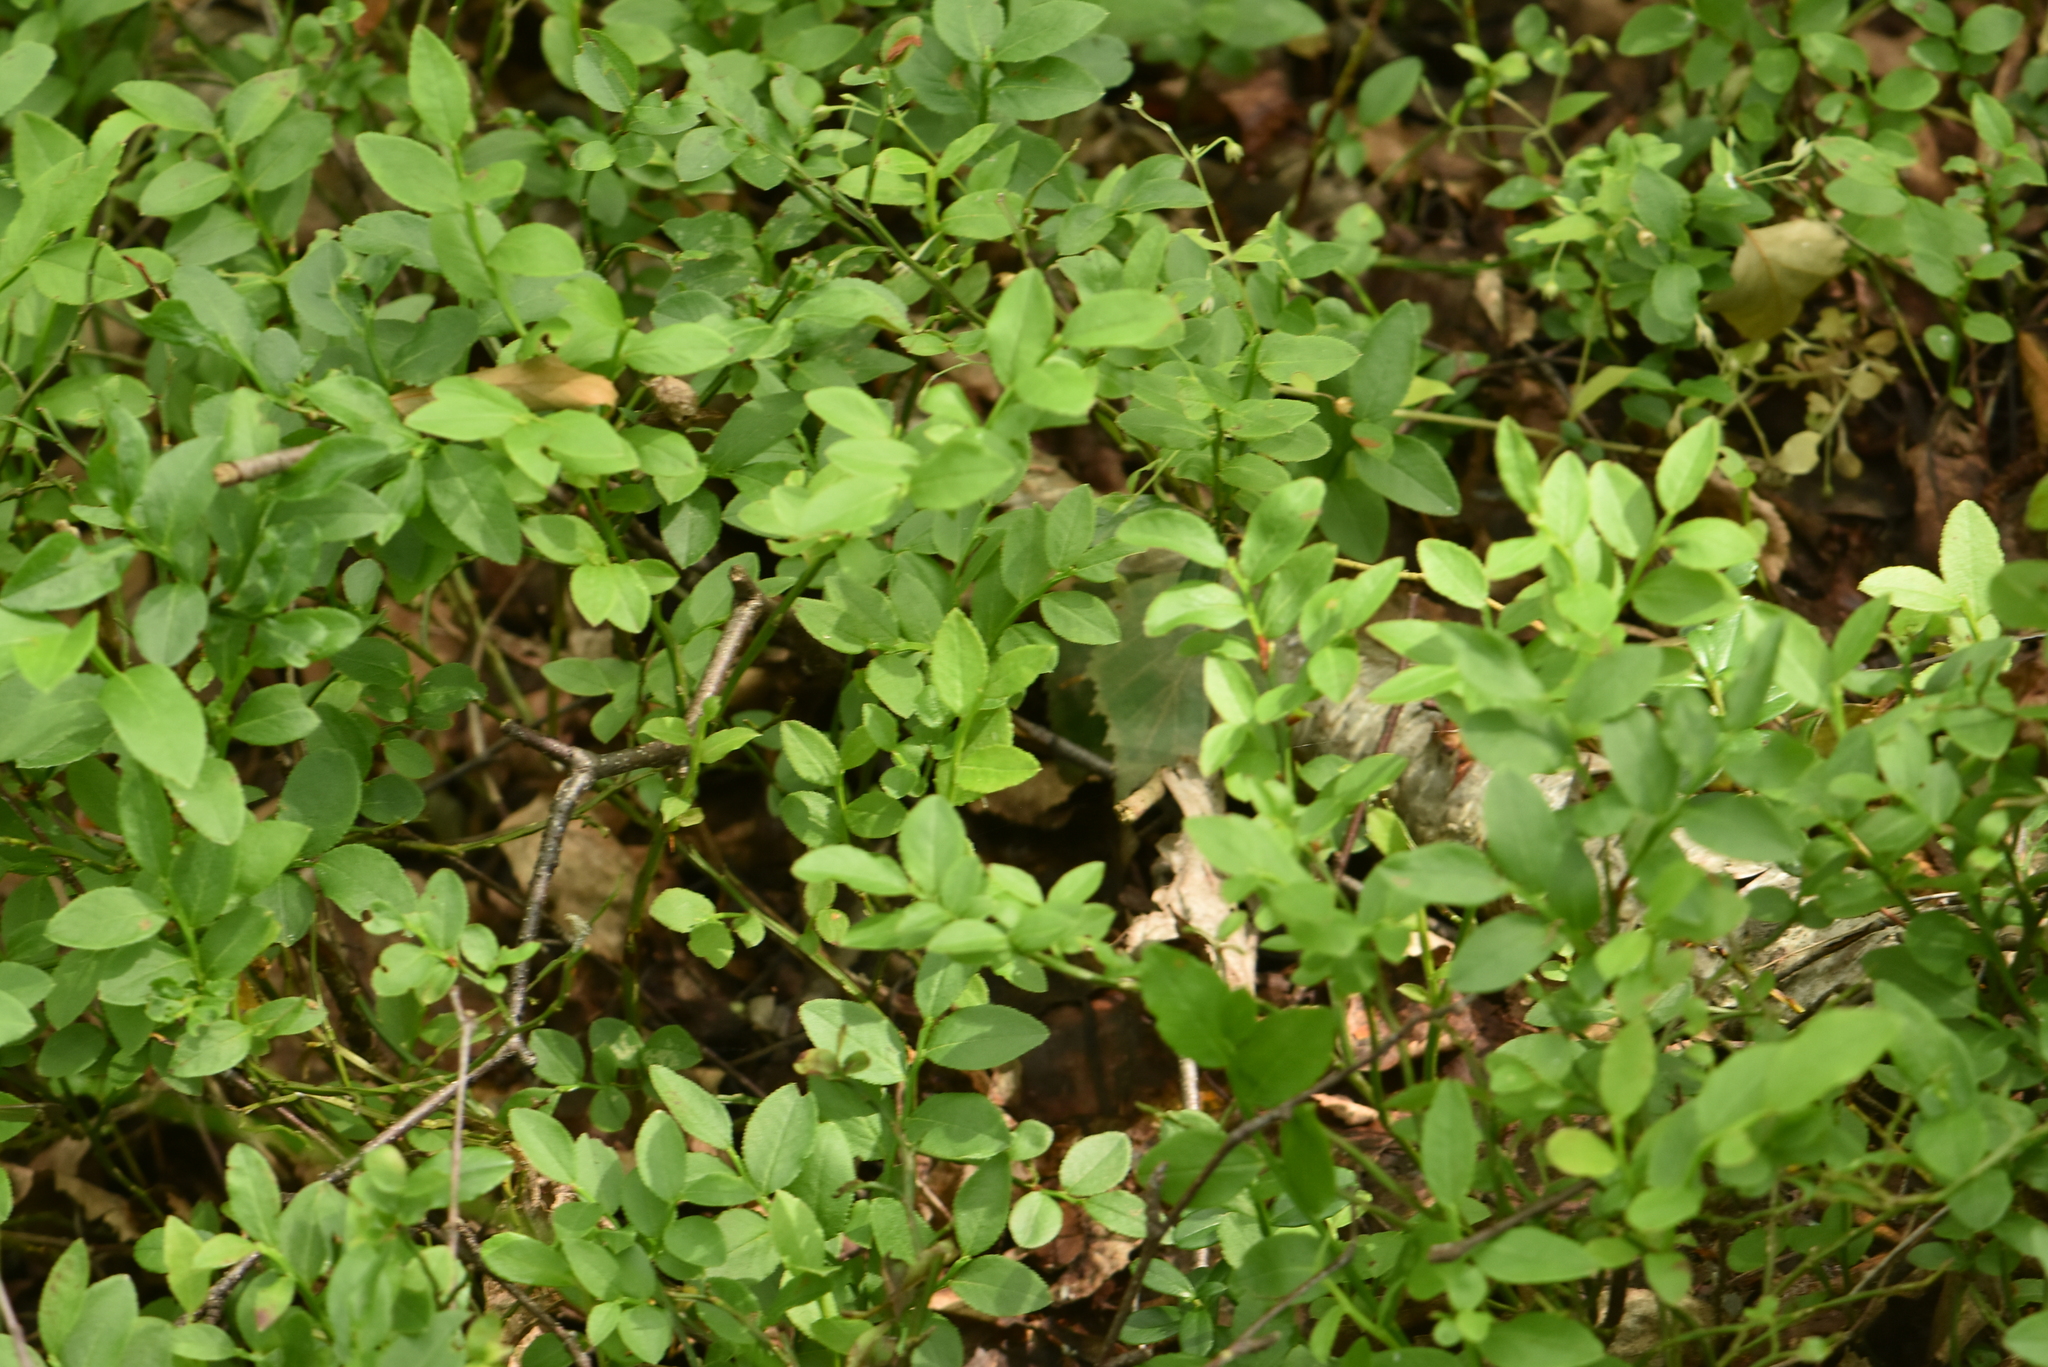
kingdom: Plantae
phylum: Tracheophyta
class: Magnoliopsida
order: Ericales
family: Ericaceae
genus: Vaccinium
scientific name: Vaccinium myrtillus
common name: Bilberry
